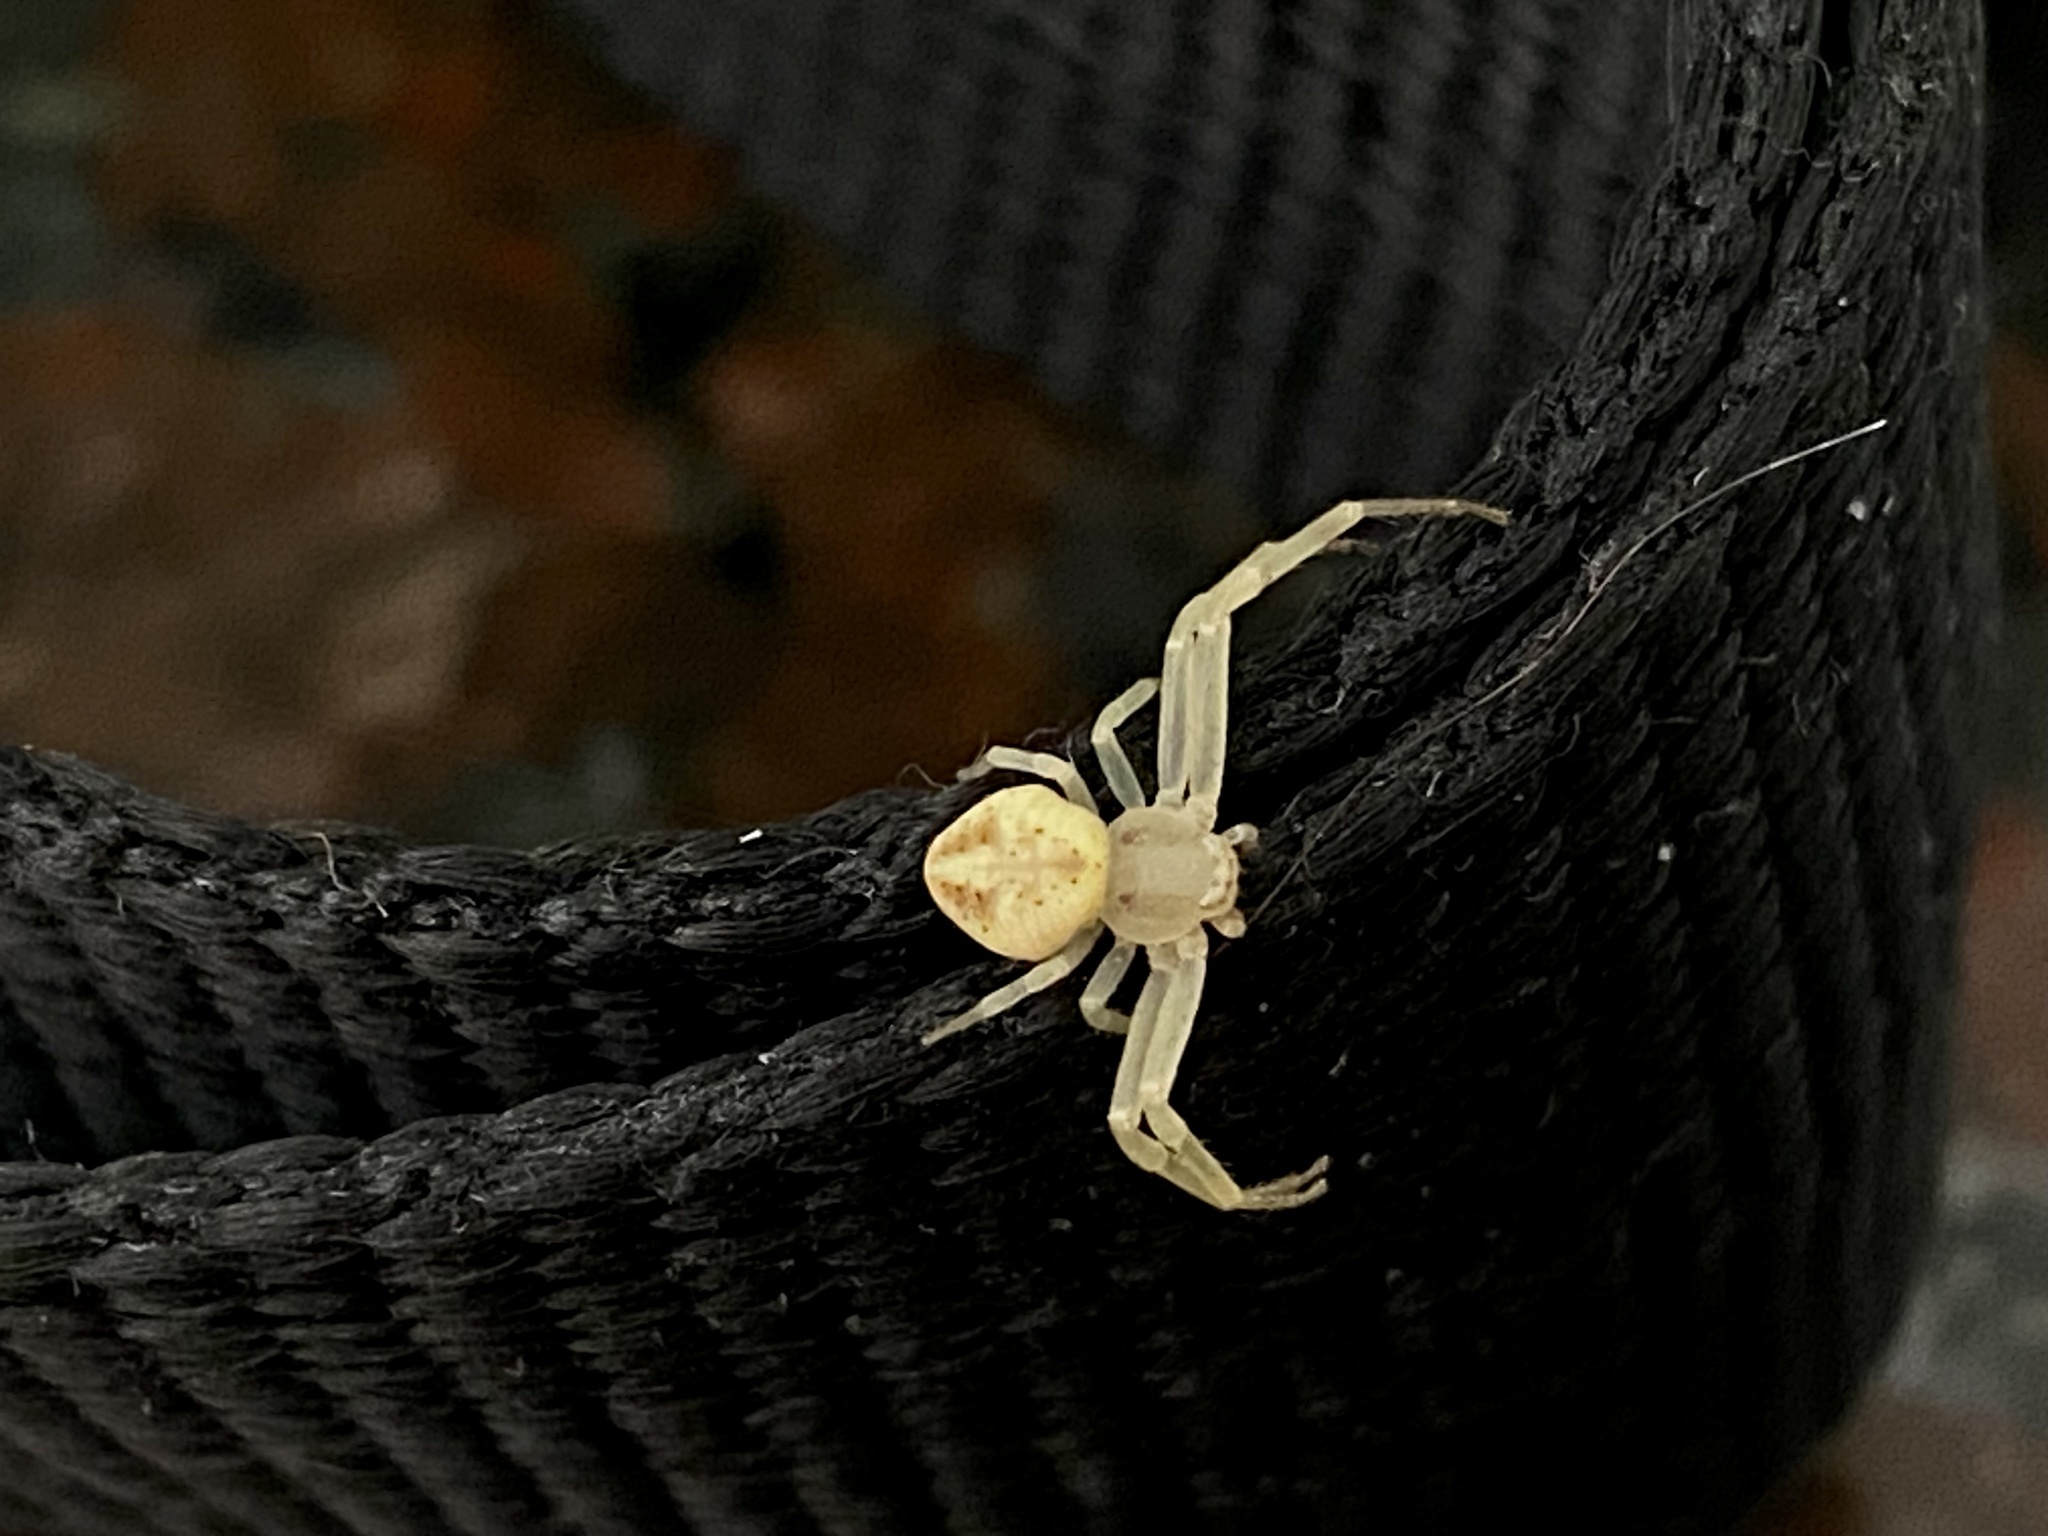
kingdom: Animalia
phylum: Arthropoda
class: Arachnida
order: Araneae
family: Thomisidae
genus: Misumenops
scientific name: Misumenops
